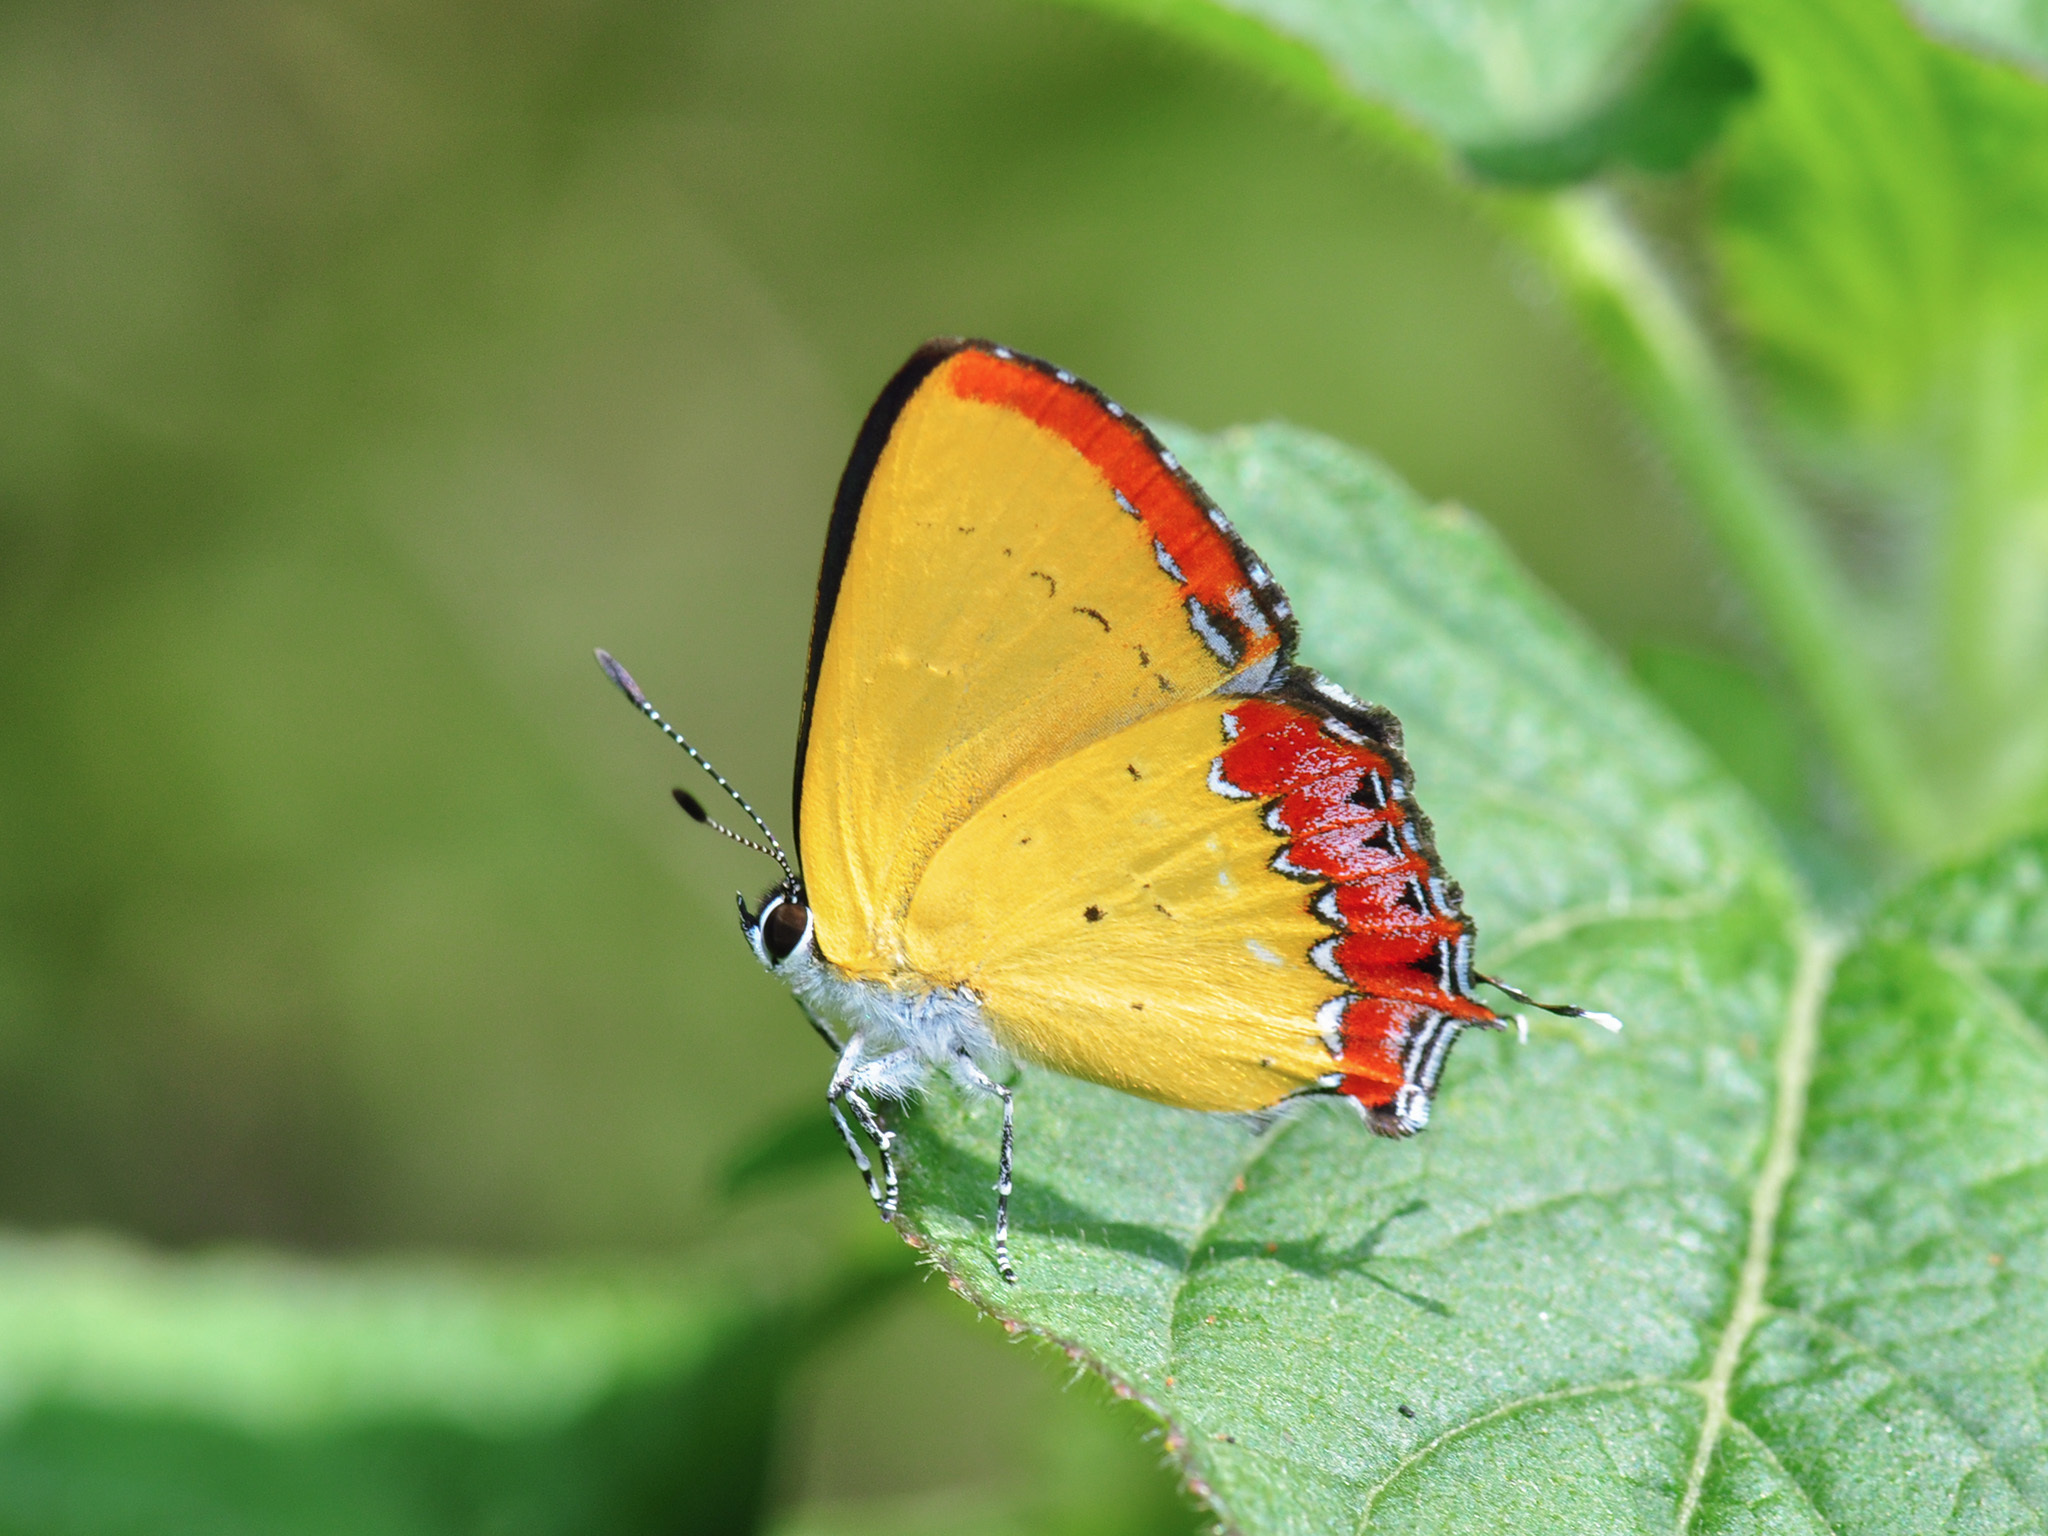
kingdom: Animalia
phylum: Arthropoda
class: Insecta
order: Lepidoptera
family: Lycaenidae
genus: Heliophorus
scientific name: Heliophorus epicles
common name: Purple sapphire
